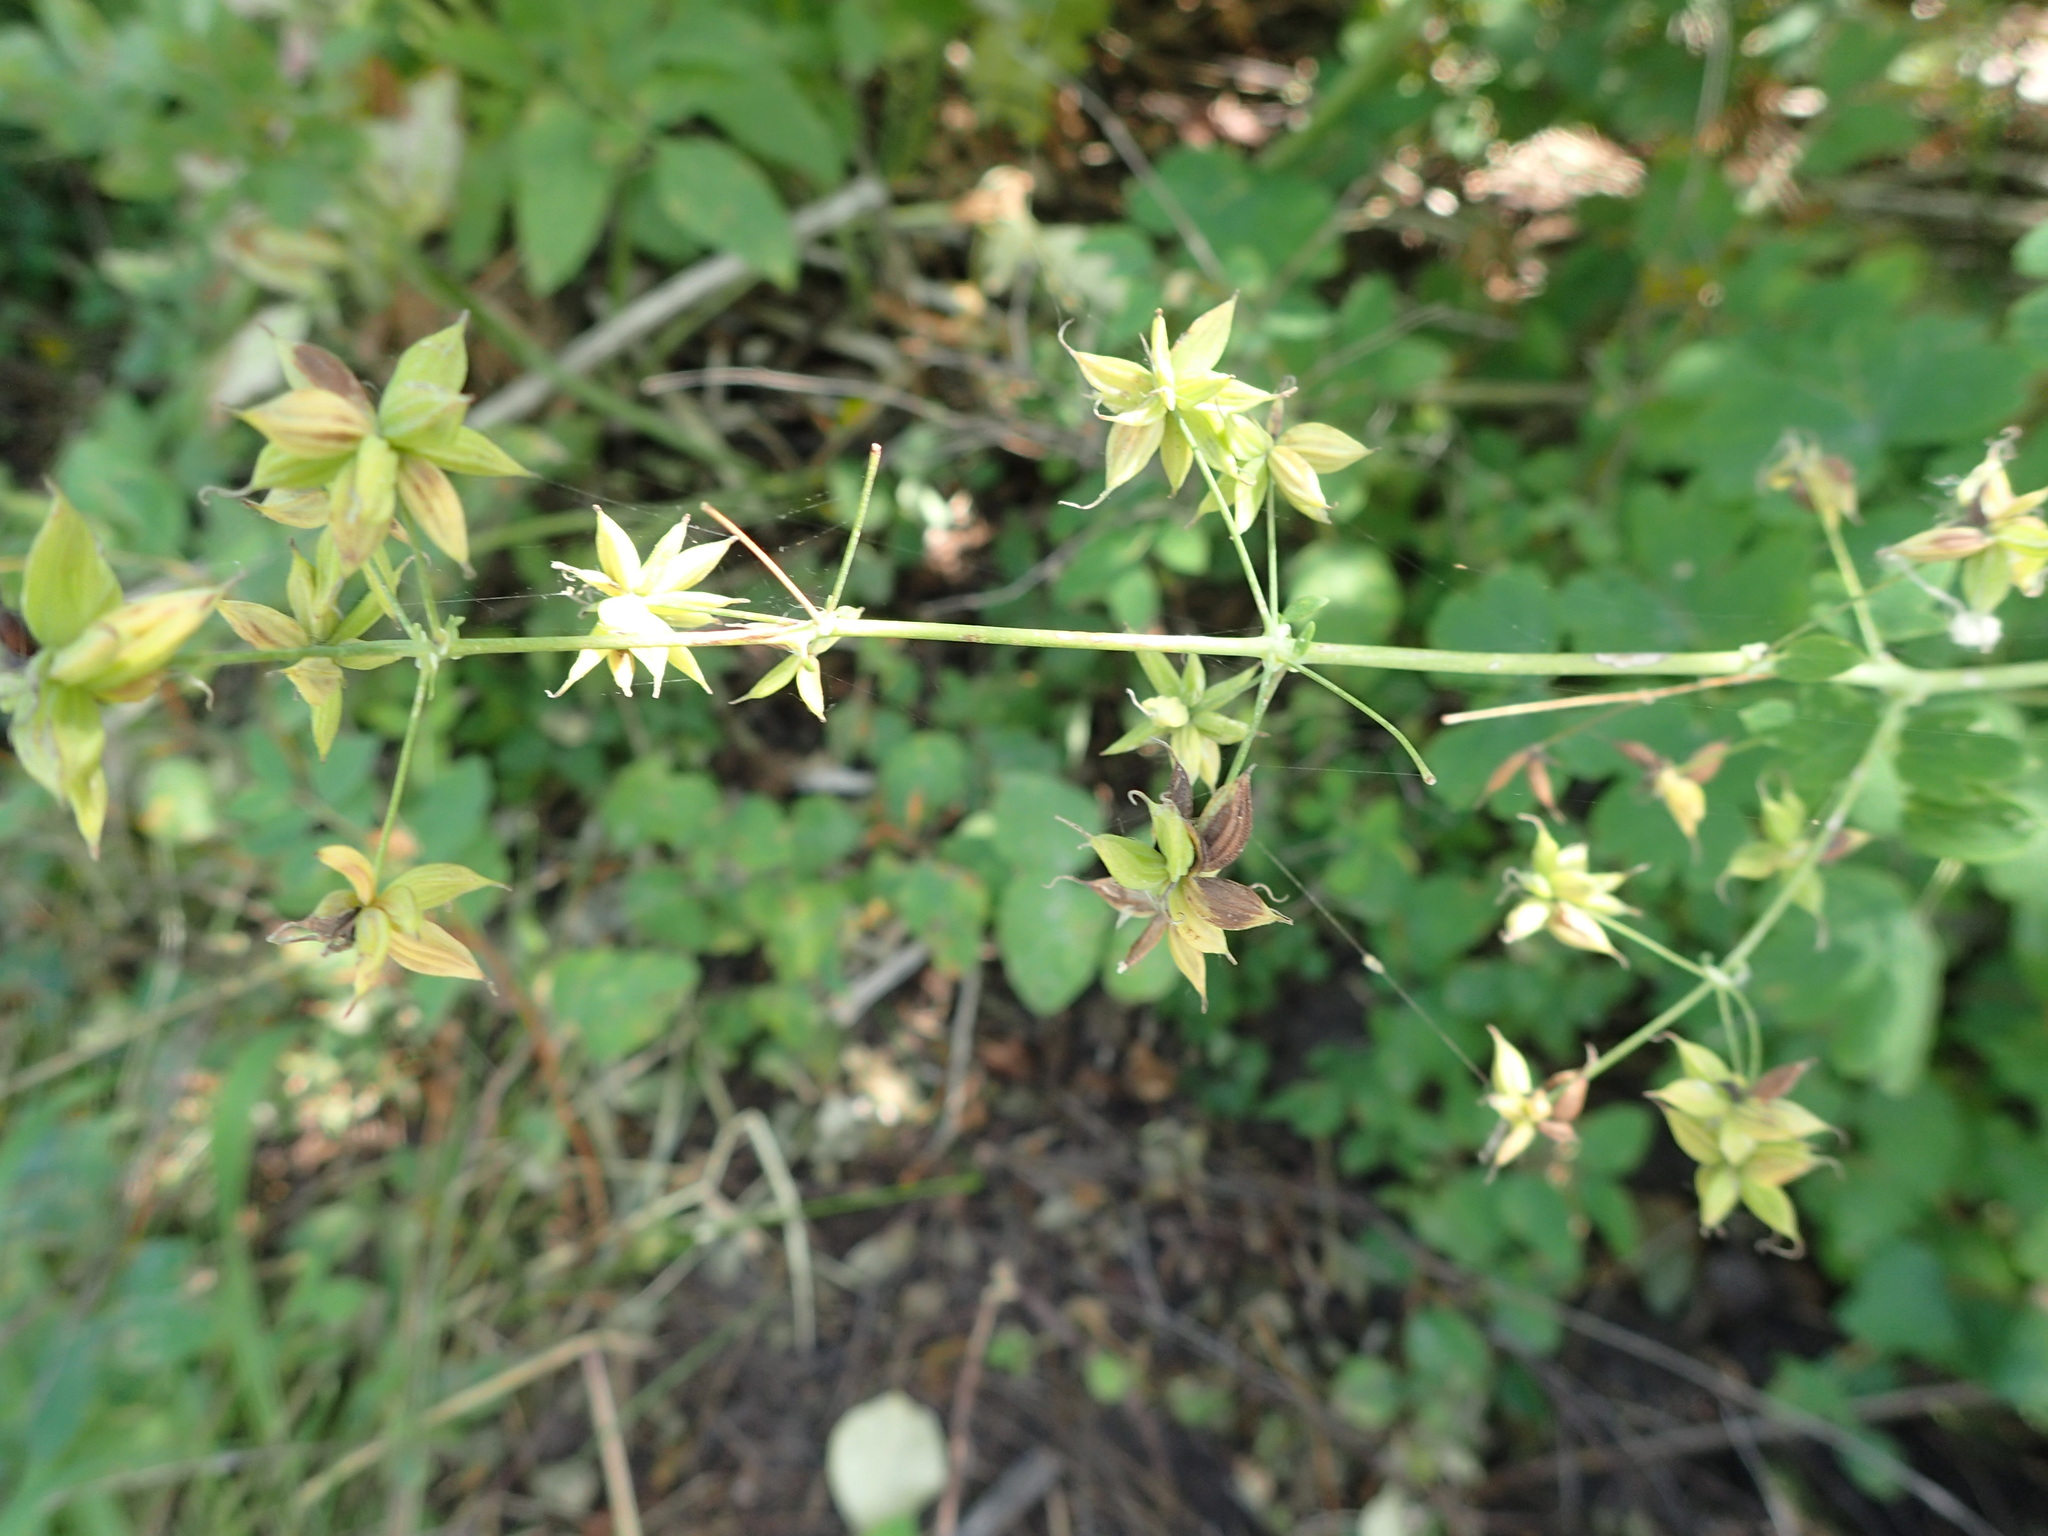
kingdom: Plantae
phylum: Tracheophyta
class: Magnoliopsida
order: Ranunculales
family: Ranunculaceae
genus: Thalictrum
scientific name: Thalictrum venulosum
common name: Early meadow-rue
